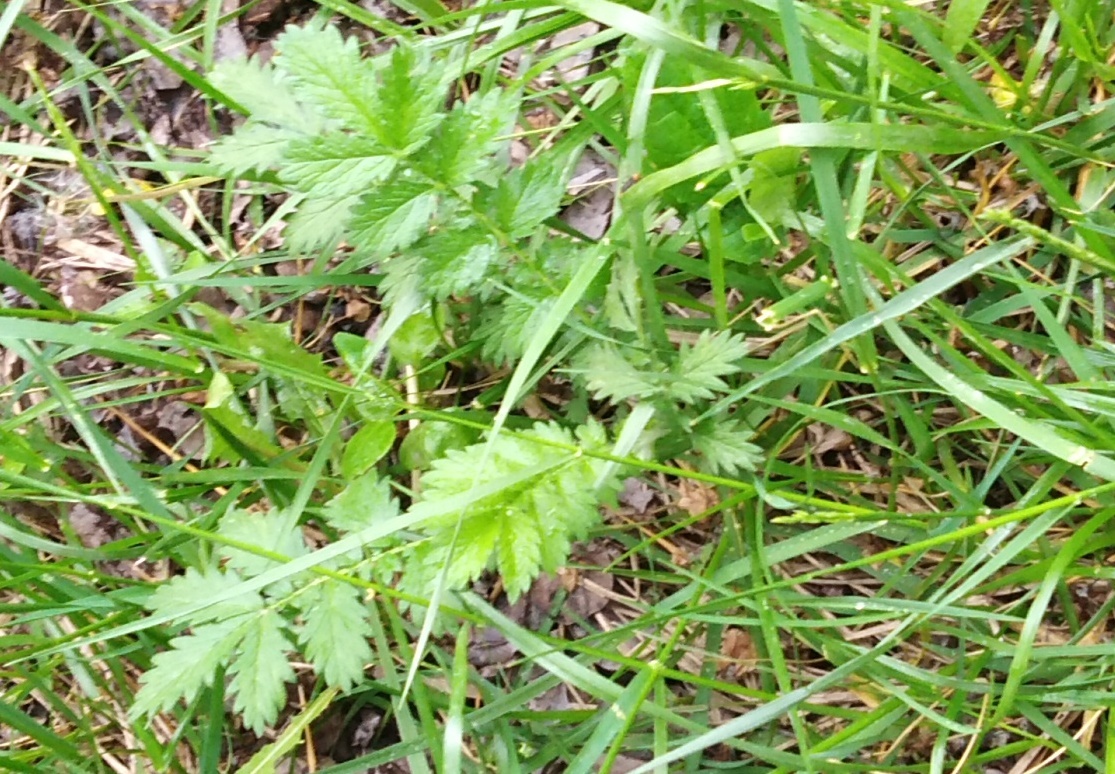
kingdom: Plantae
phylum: Tracheophyta
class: Magnoliopsida
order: Rosales
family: Rosaceae
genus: Argentina
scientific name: Argentina anserina
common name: Common silverweed
